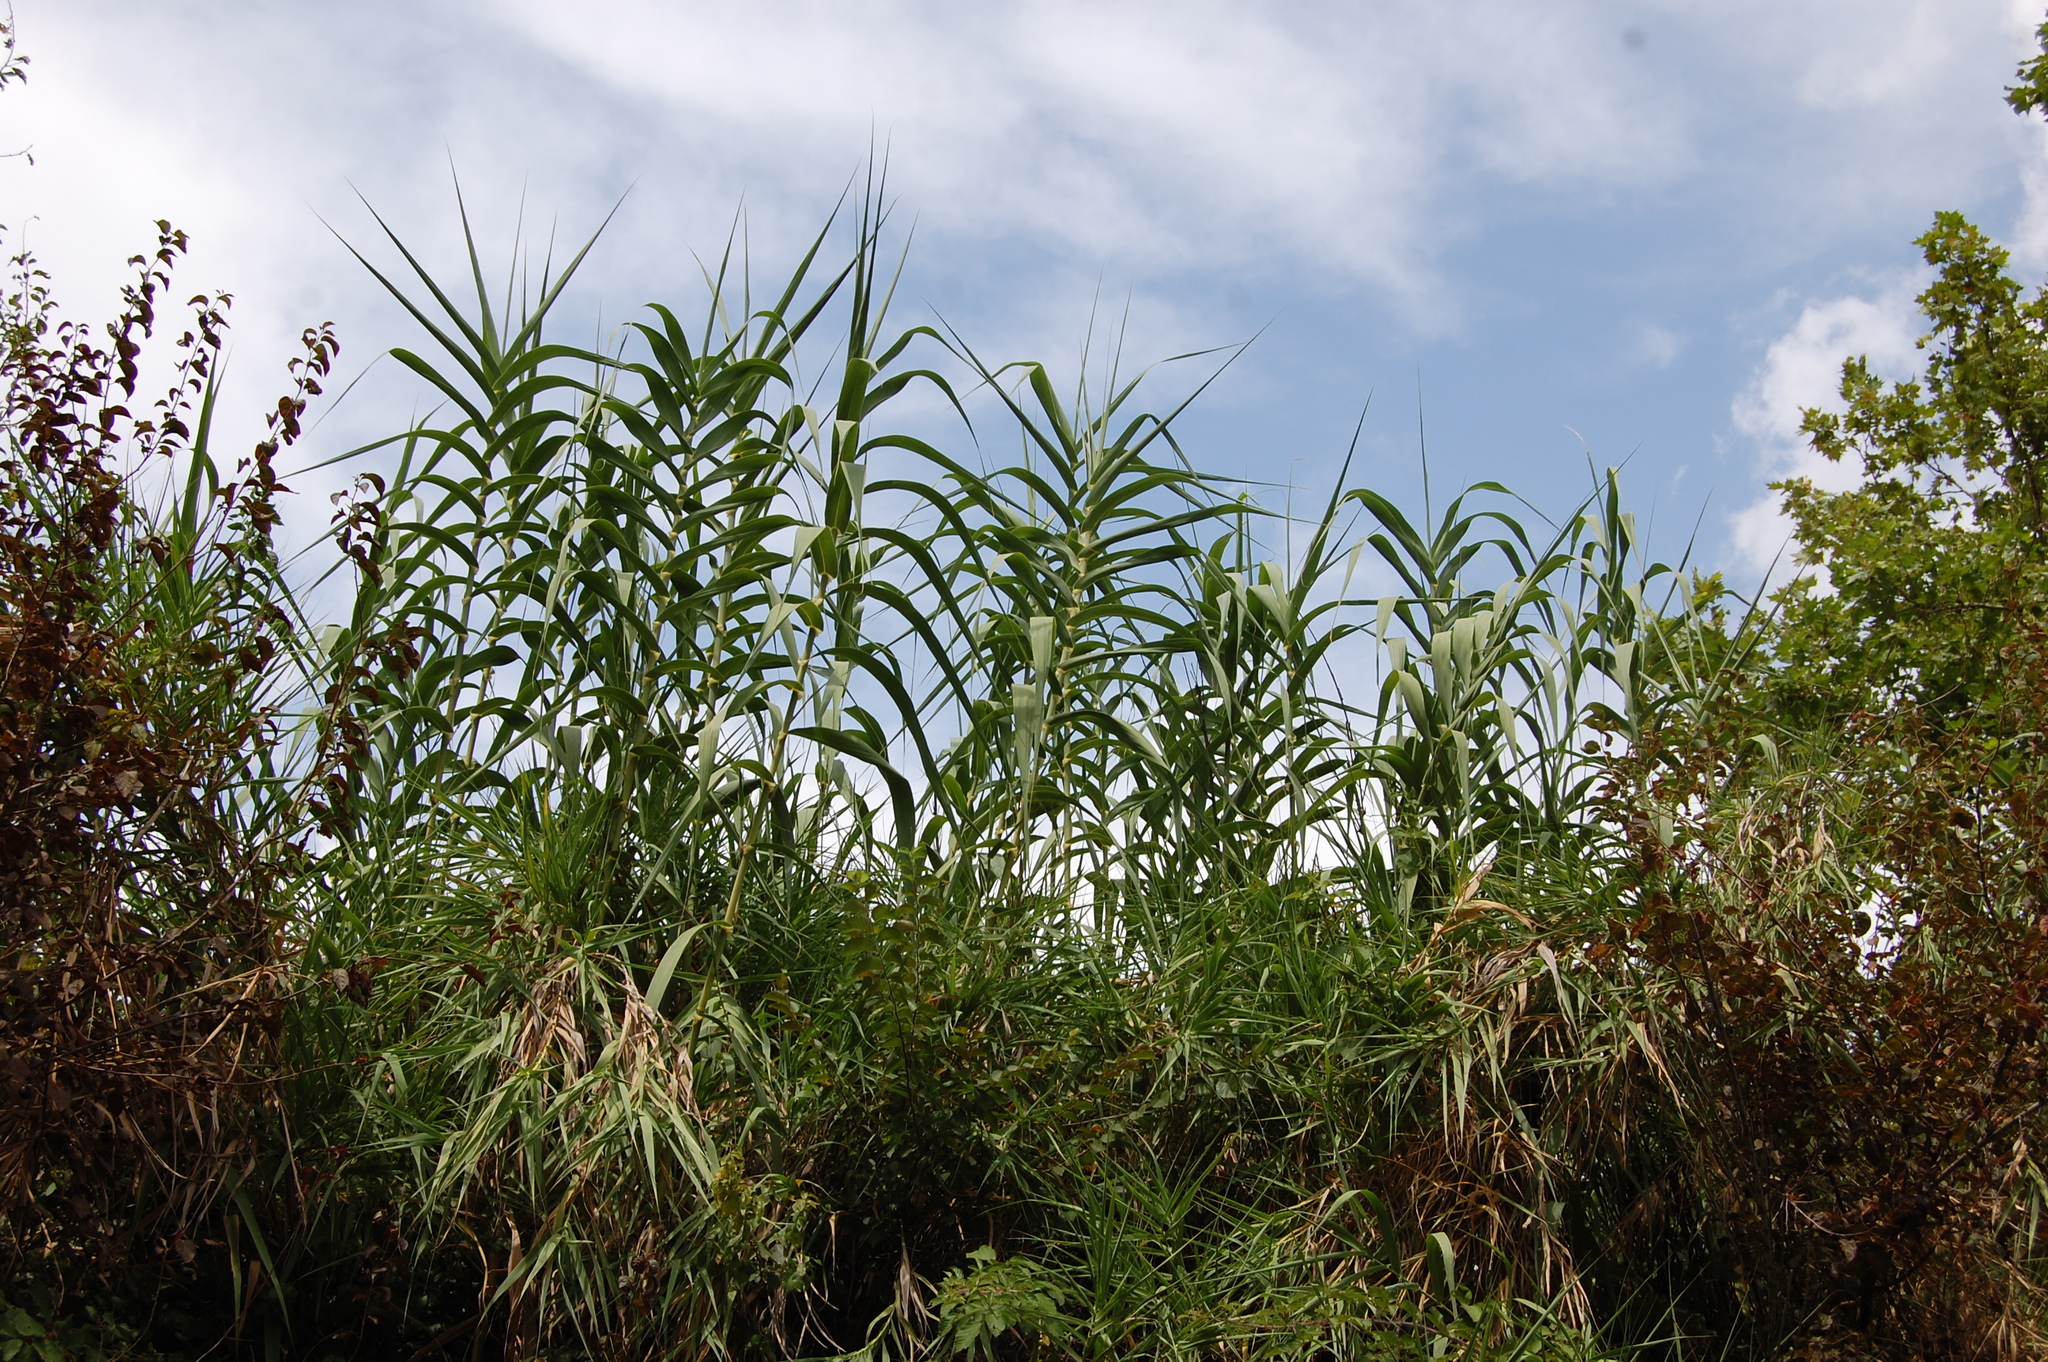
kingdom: Plantae
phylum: Tracheophyta
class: Liliopsida
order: Poales
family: Poaceae
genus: Arundo
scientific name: Arundo donax
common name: Giant reed
